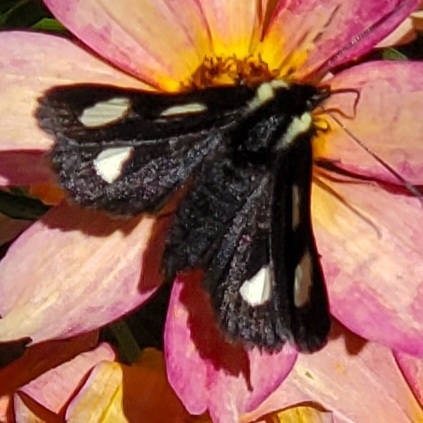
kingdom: Animalia
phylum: Arthropoda
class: Insecta
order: Lepidoptera
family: Noctuidae
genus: Alypia
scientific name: Alypia langtonii
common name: Fireweed caterpillar
